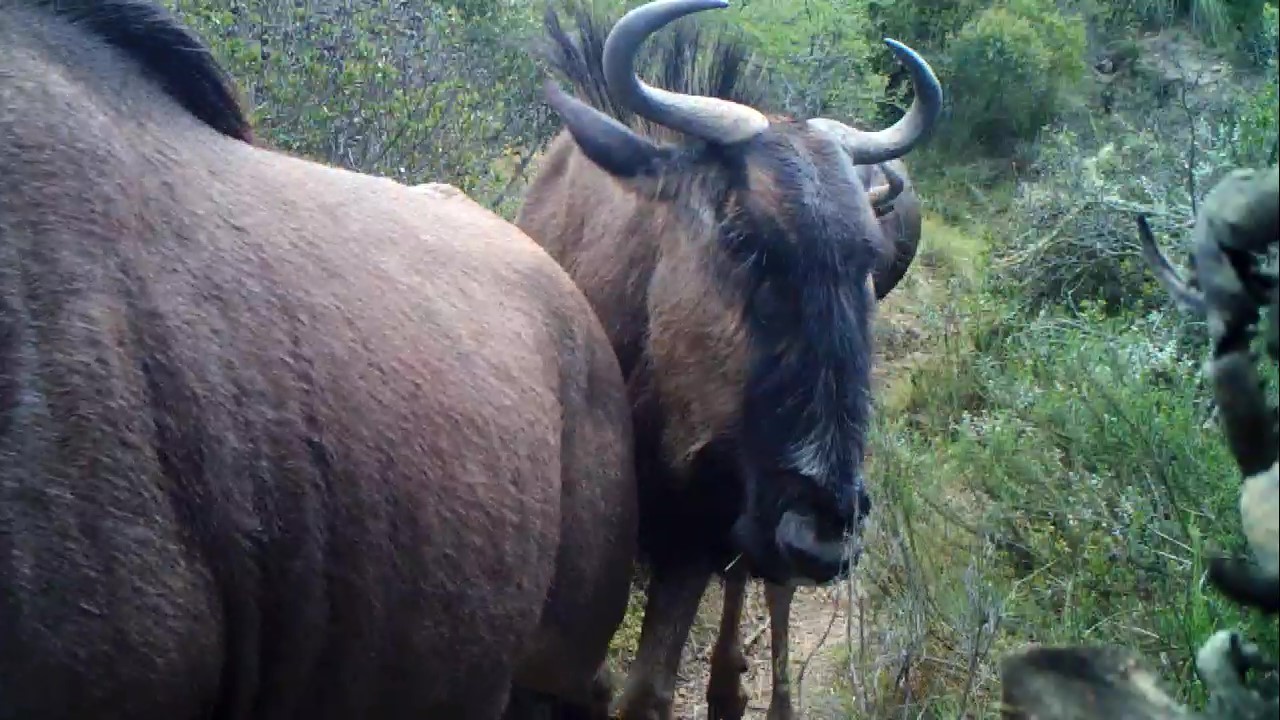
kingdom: Animalia
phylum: Chordata
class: Mammalia
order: Artiodactyla
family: Bovidae
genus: Connochaetes
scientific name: Connochaetes taurinus
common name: Blue wildebeest
